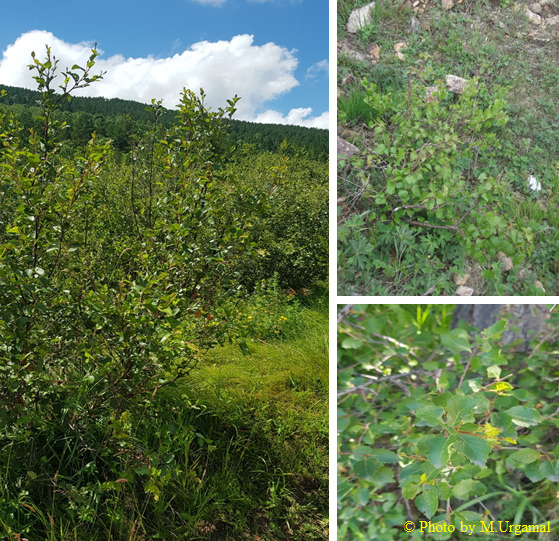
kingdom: Plantae
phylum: Tracheophyta
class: Magnoliopsida
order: Fagales
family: Betulaceae
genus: Betula
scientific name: Betula fruticosa
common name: Japanese bog birch
